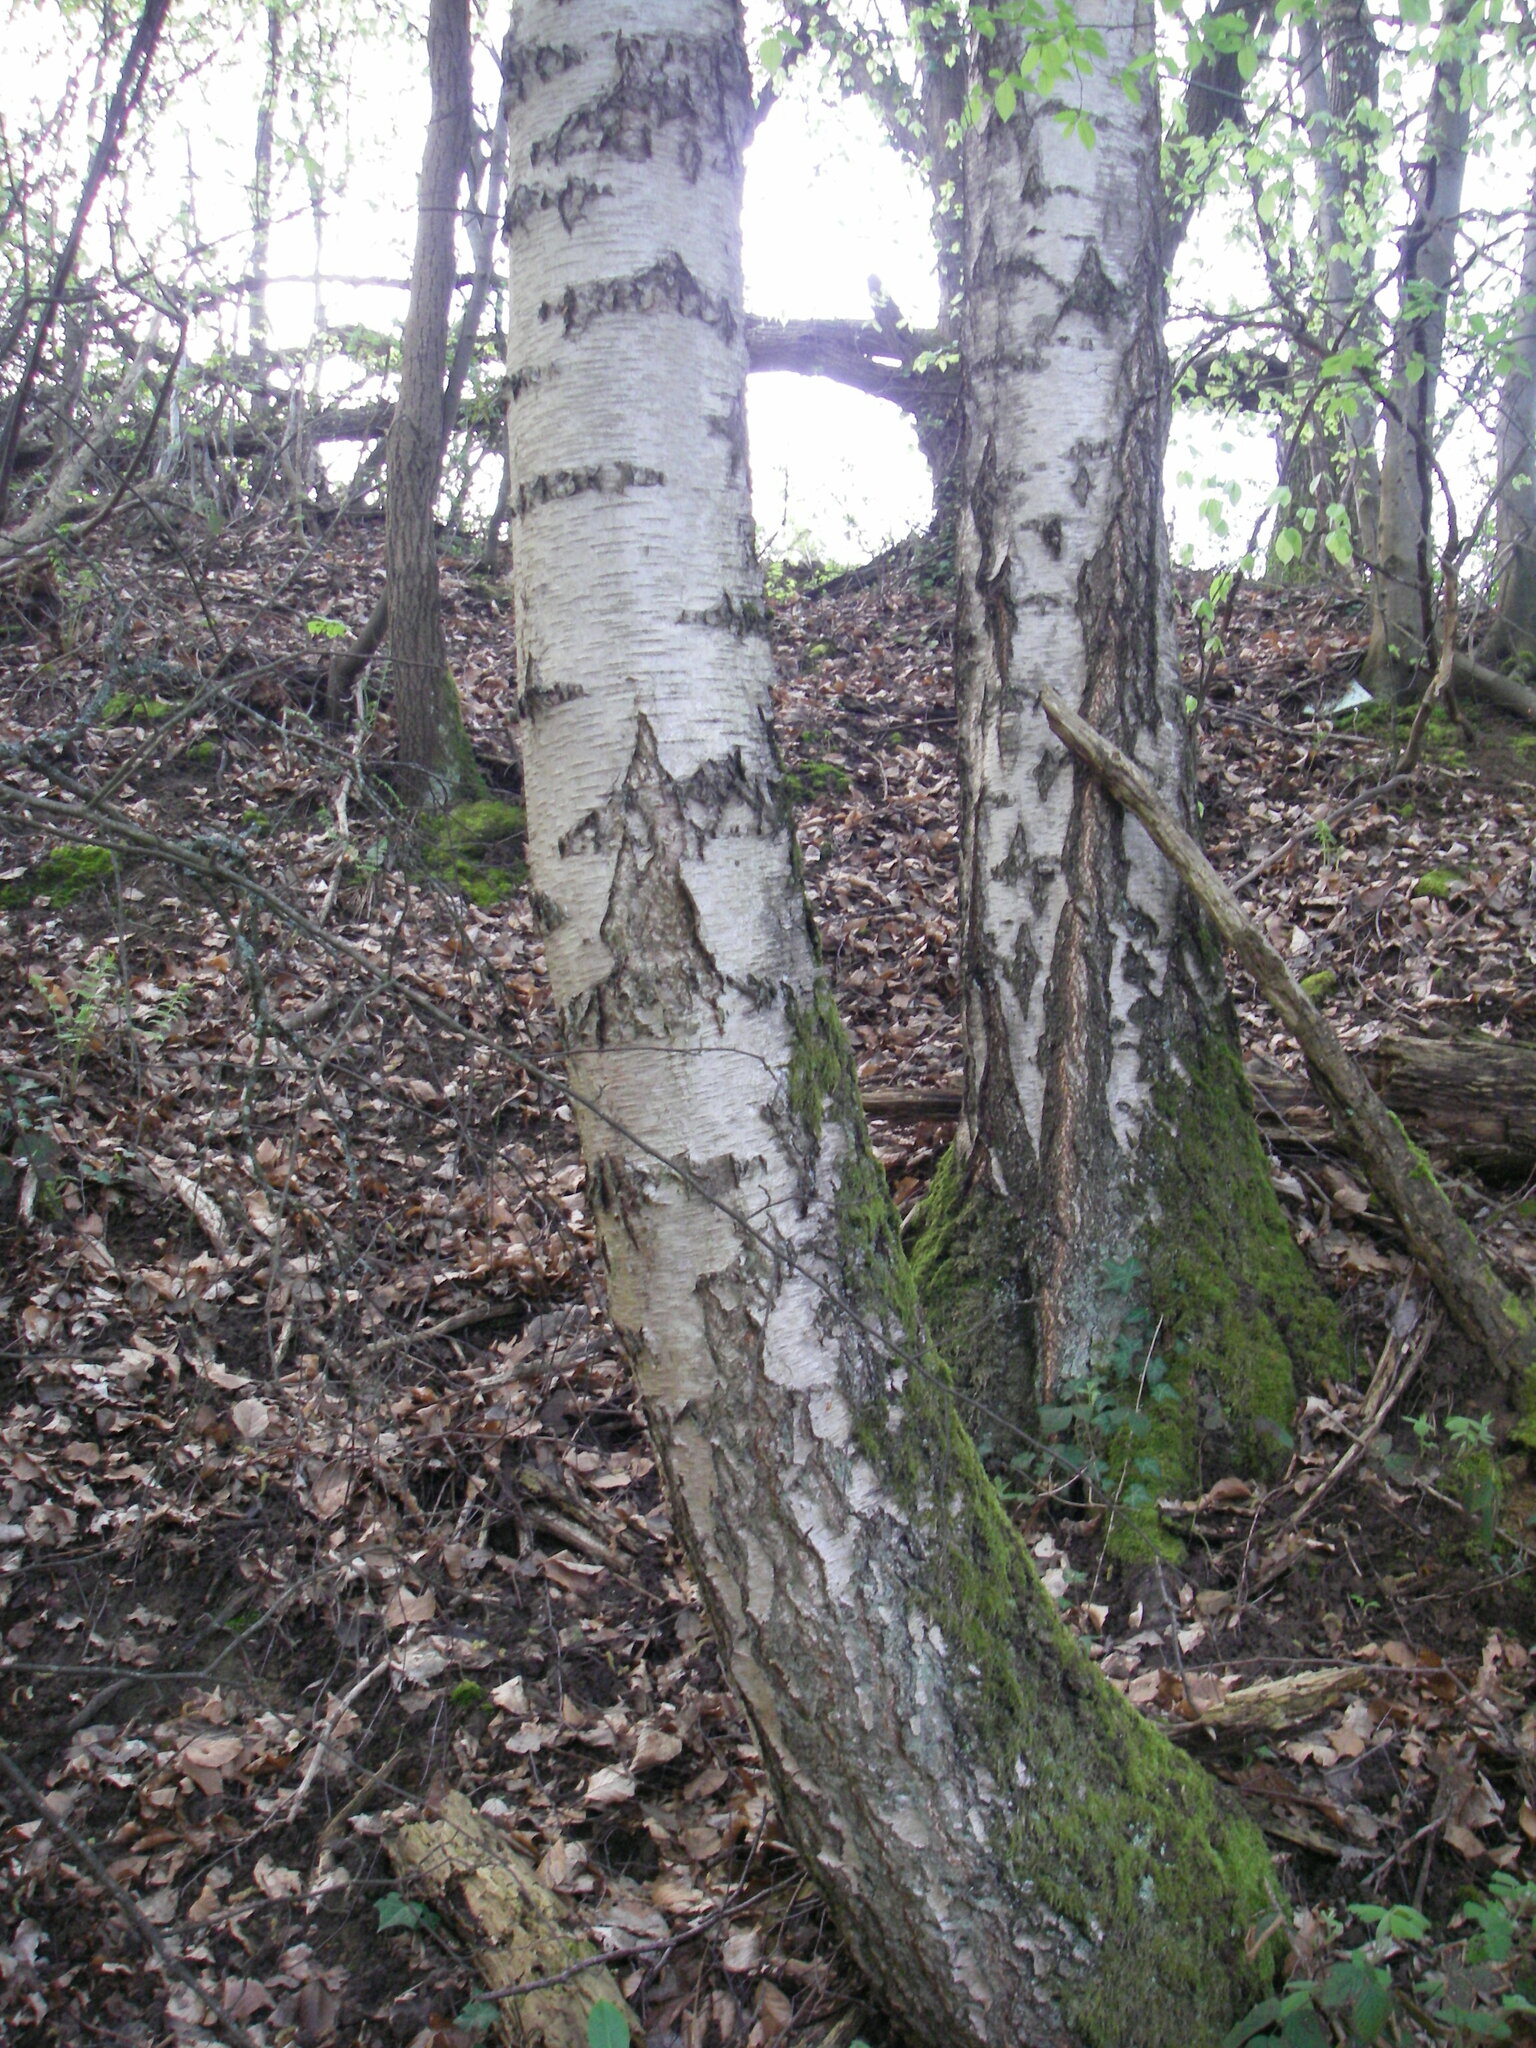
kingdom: Plantae
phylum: Tracheophyta
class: Magnoliopsida
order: Fagales
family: Betulaceae
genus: Betula
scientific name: Betula pendula
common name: Silver birch
